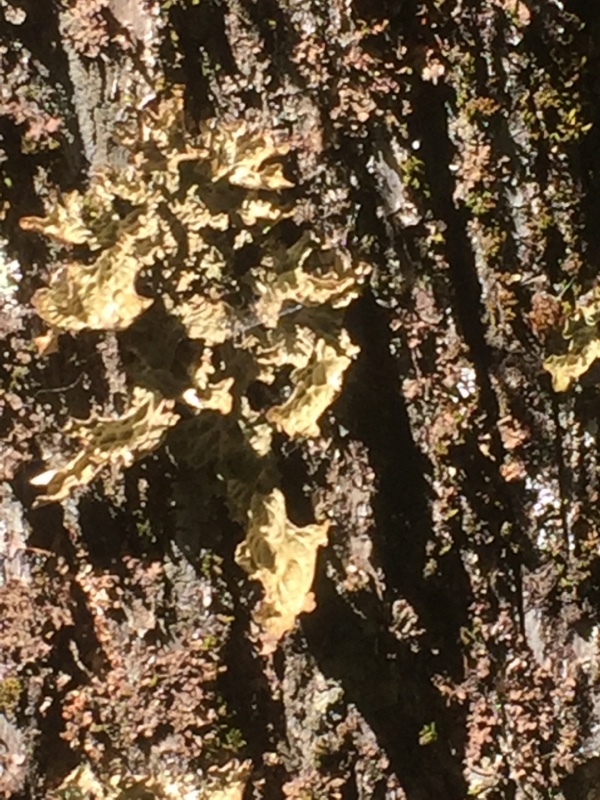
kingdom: Fungi
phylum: Ascomycota
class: Lecanoromycetes
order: Peltigerales
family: Lobariaceae
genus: Lobaria
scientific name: Lobaria pulmonaria
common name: Lungwort
